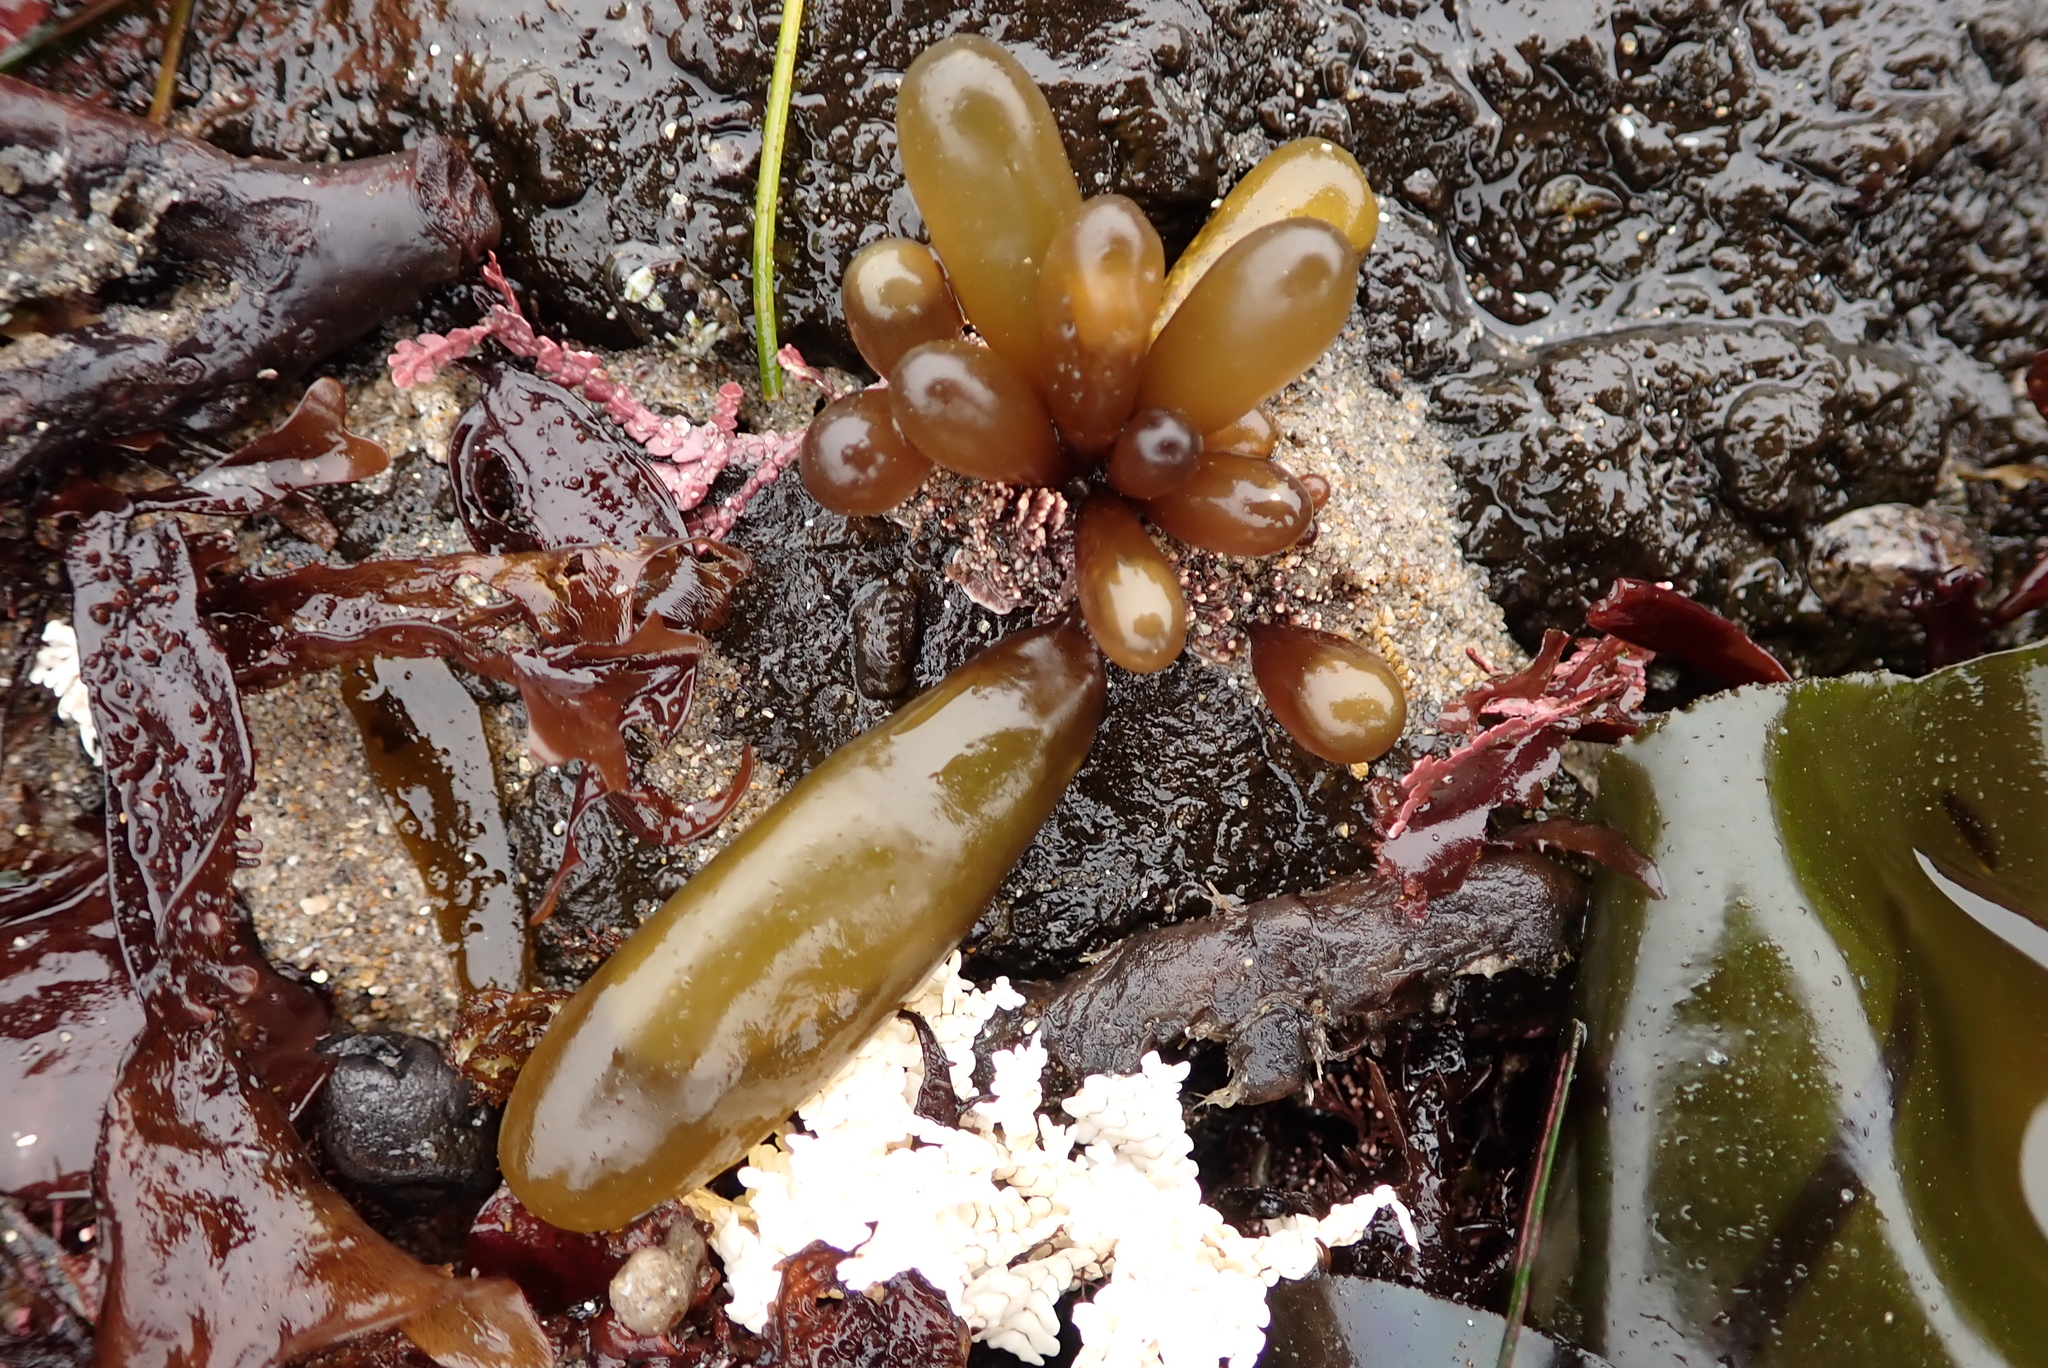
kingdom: Plantae
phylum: Rhodophyta
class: Florideophyceae
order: Palmariales
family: Palmariaceae
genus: Halosaccion
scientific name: Halosaccion glandiforme
